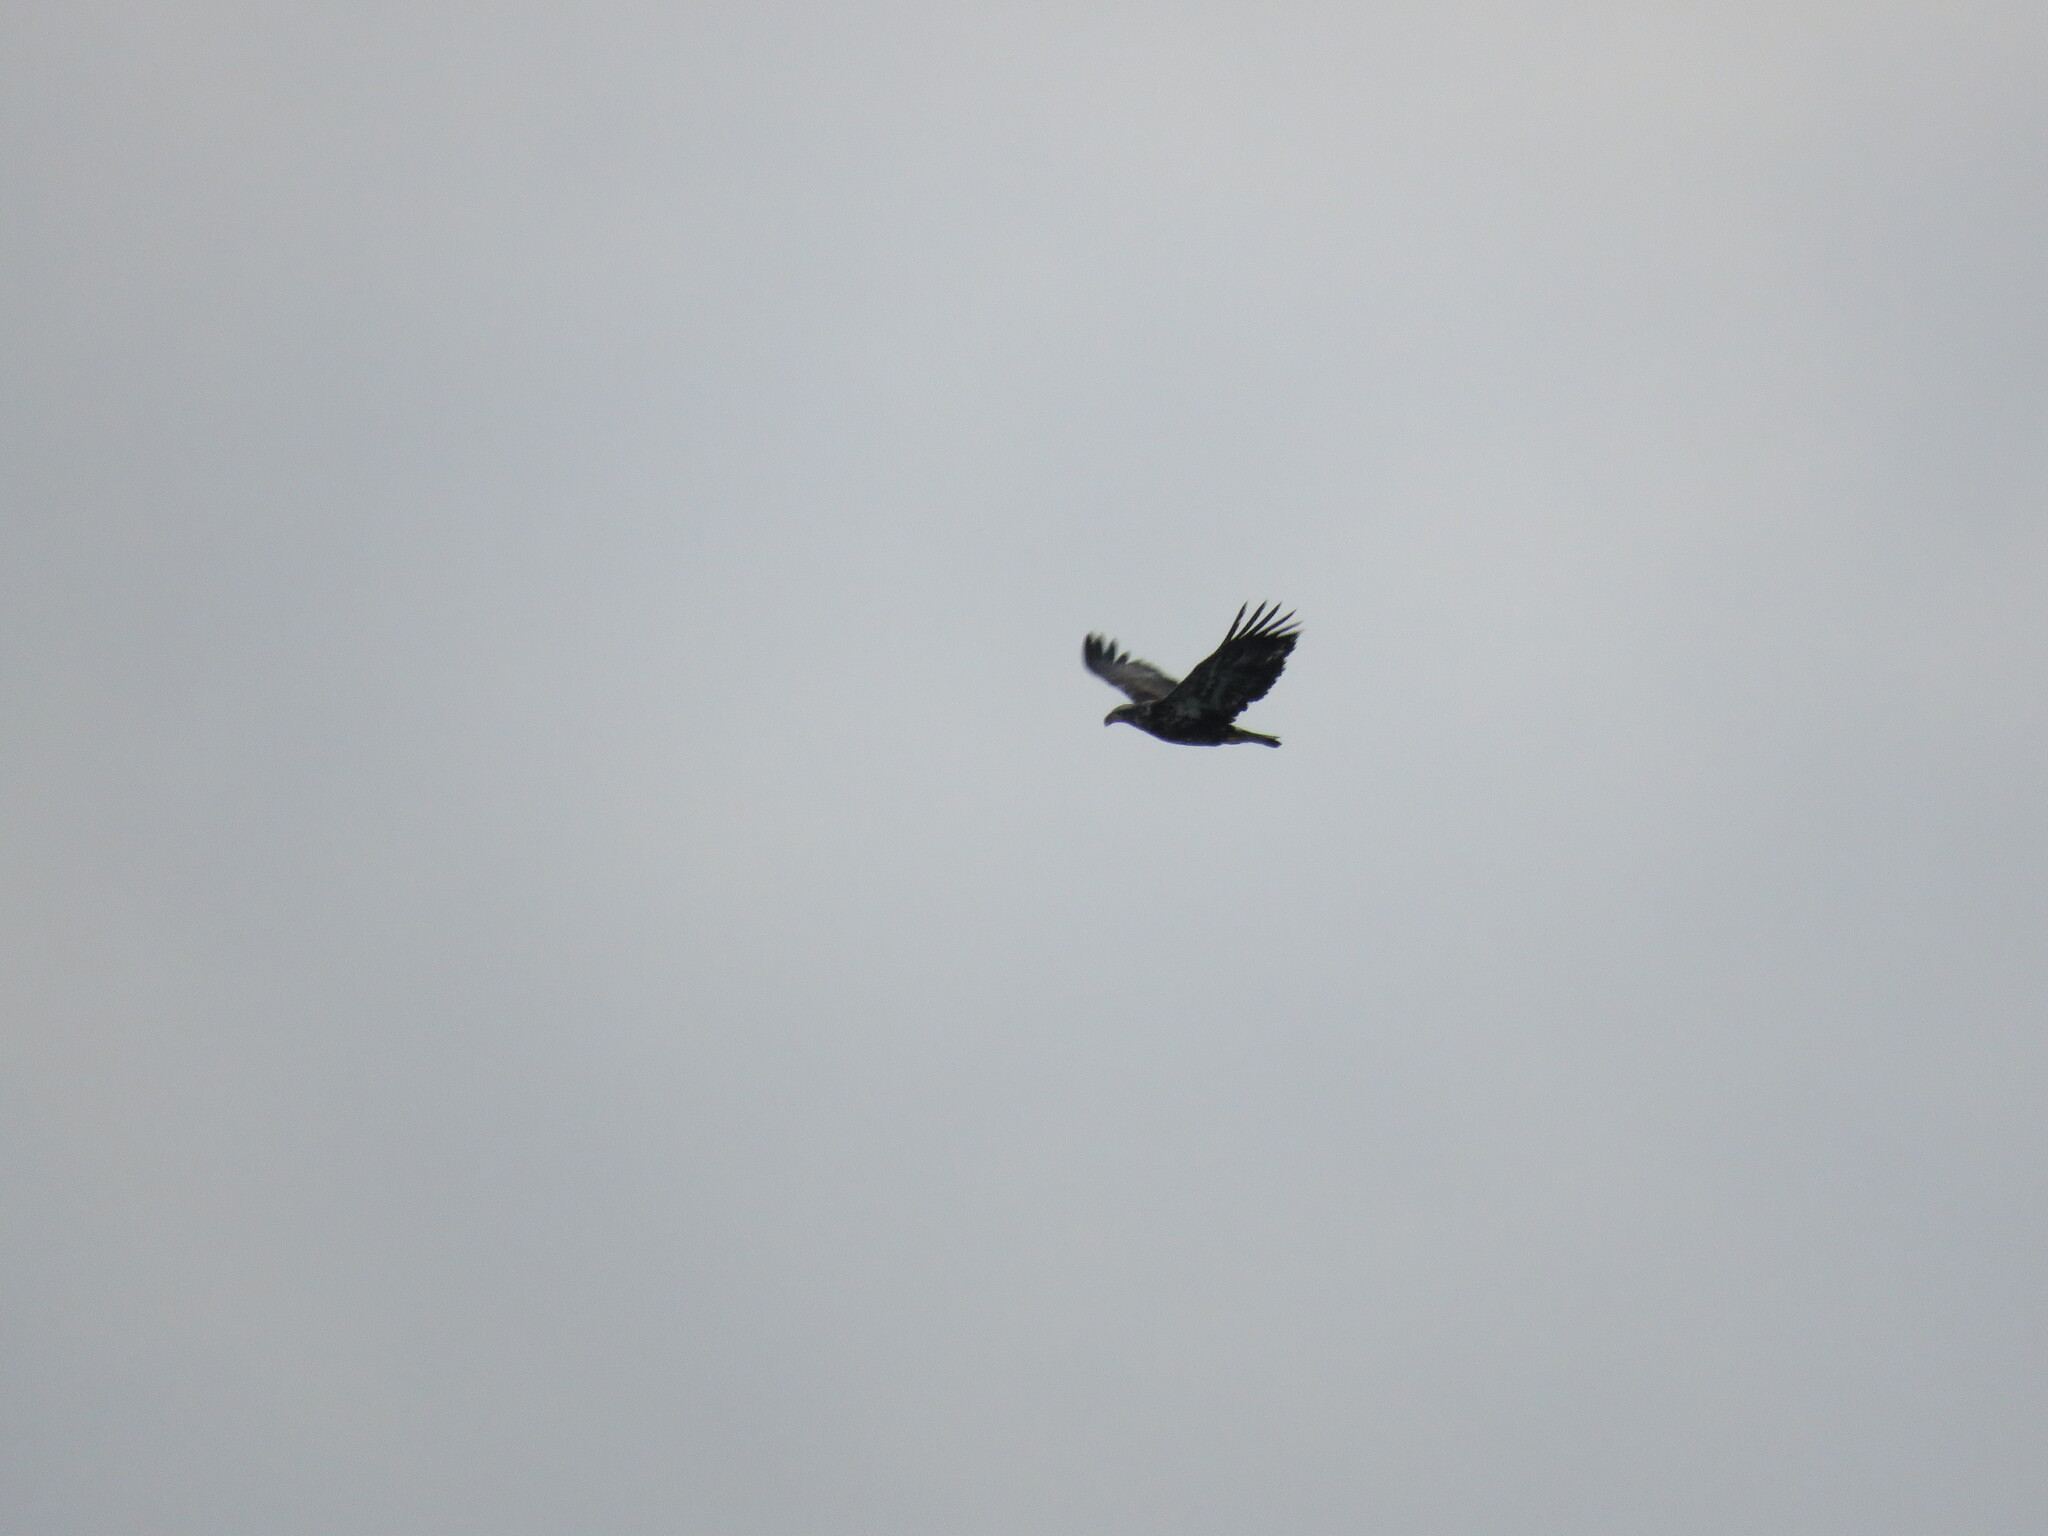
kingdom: Animalia
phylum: Chordata
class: Aves
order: Accipitriformes
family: Accipitridae
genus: Haliaeetus
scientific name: Haliaeetus leucocephalus
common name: Bald eagle
